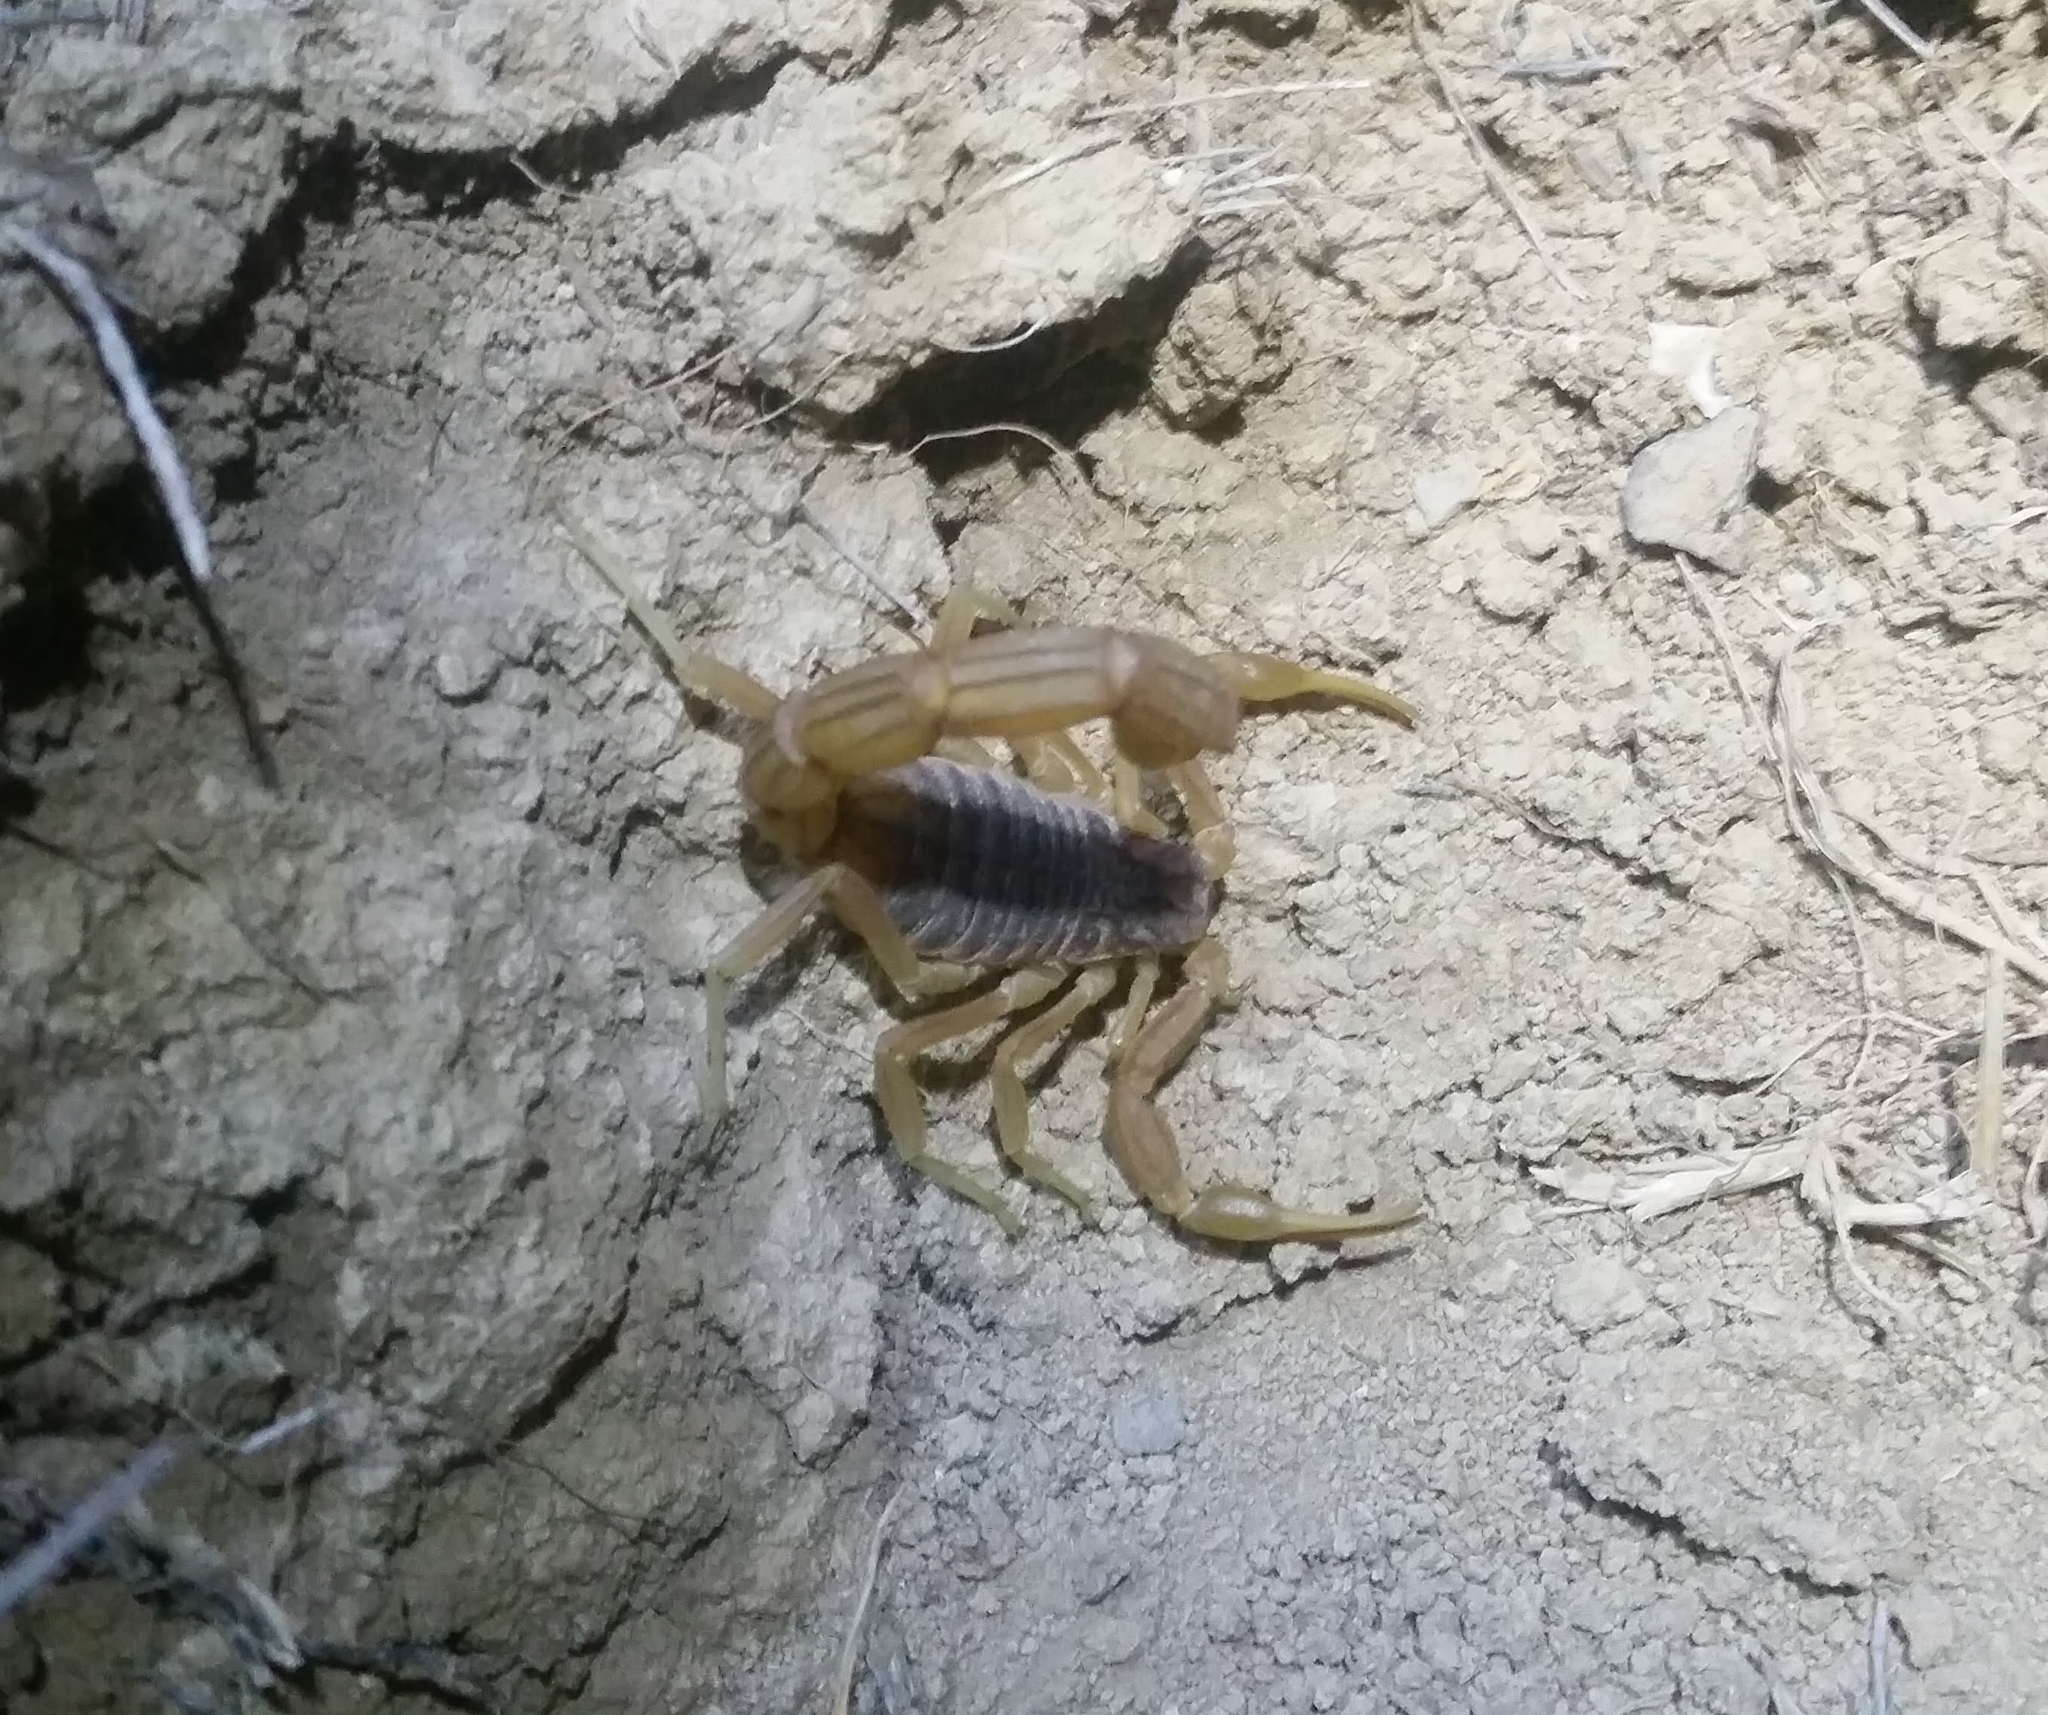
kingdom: Animalia
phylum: Arthropoda
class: Arachnida
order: Scorpiones
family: Buthidae
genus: Buthus
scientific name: Buthus oudjanii
